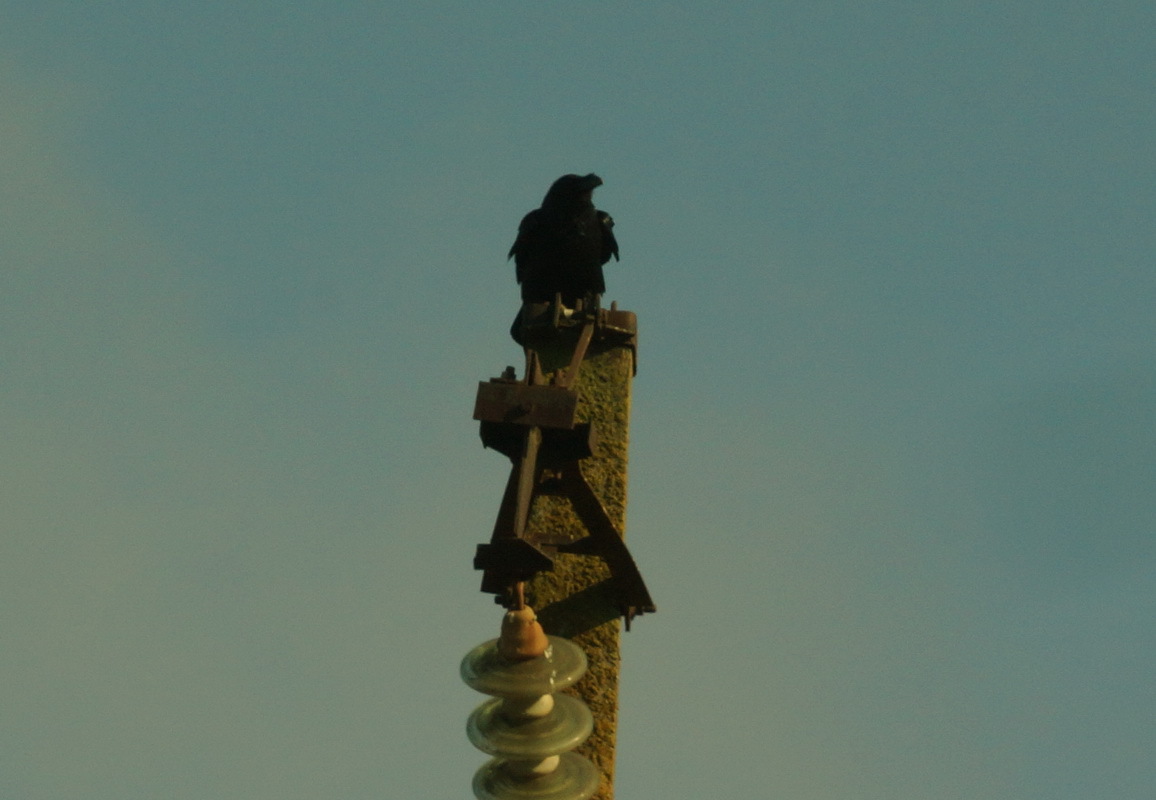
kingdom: Animalia
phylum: Chordata
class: Aves
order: Passeriformes
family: Corvidae
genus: Corvus
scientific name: Corvus corax
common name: Common raven
